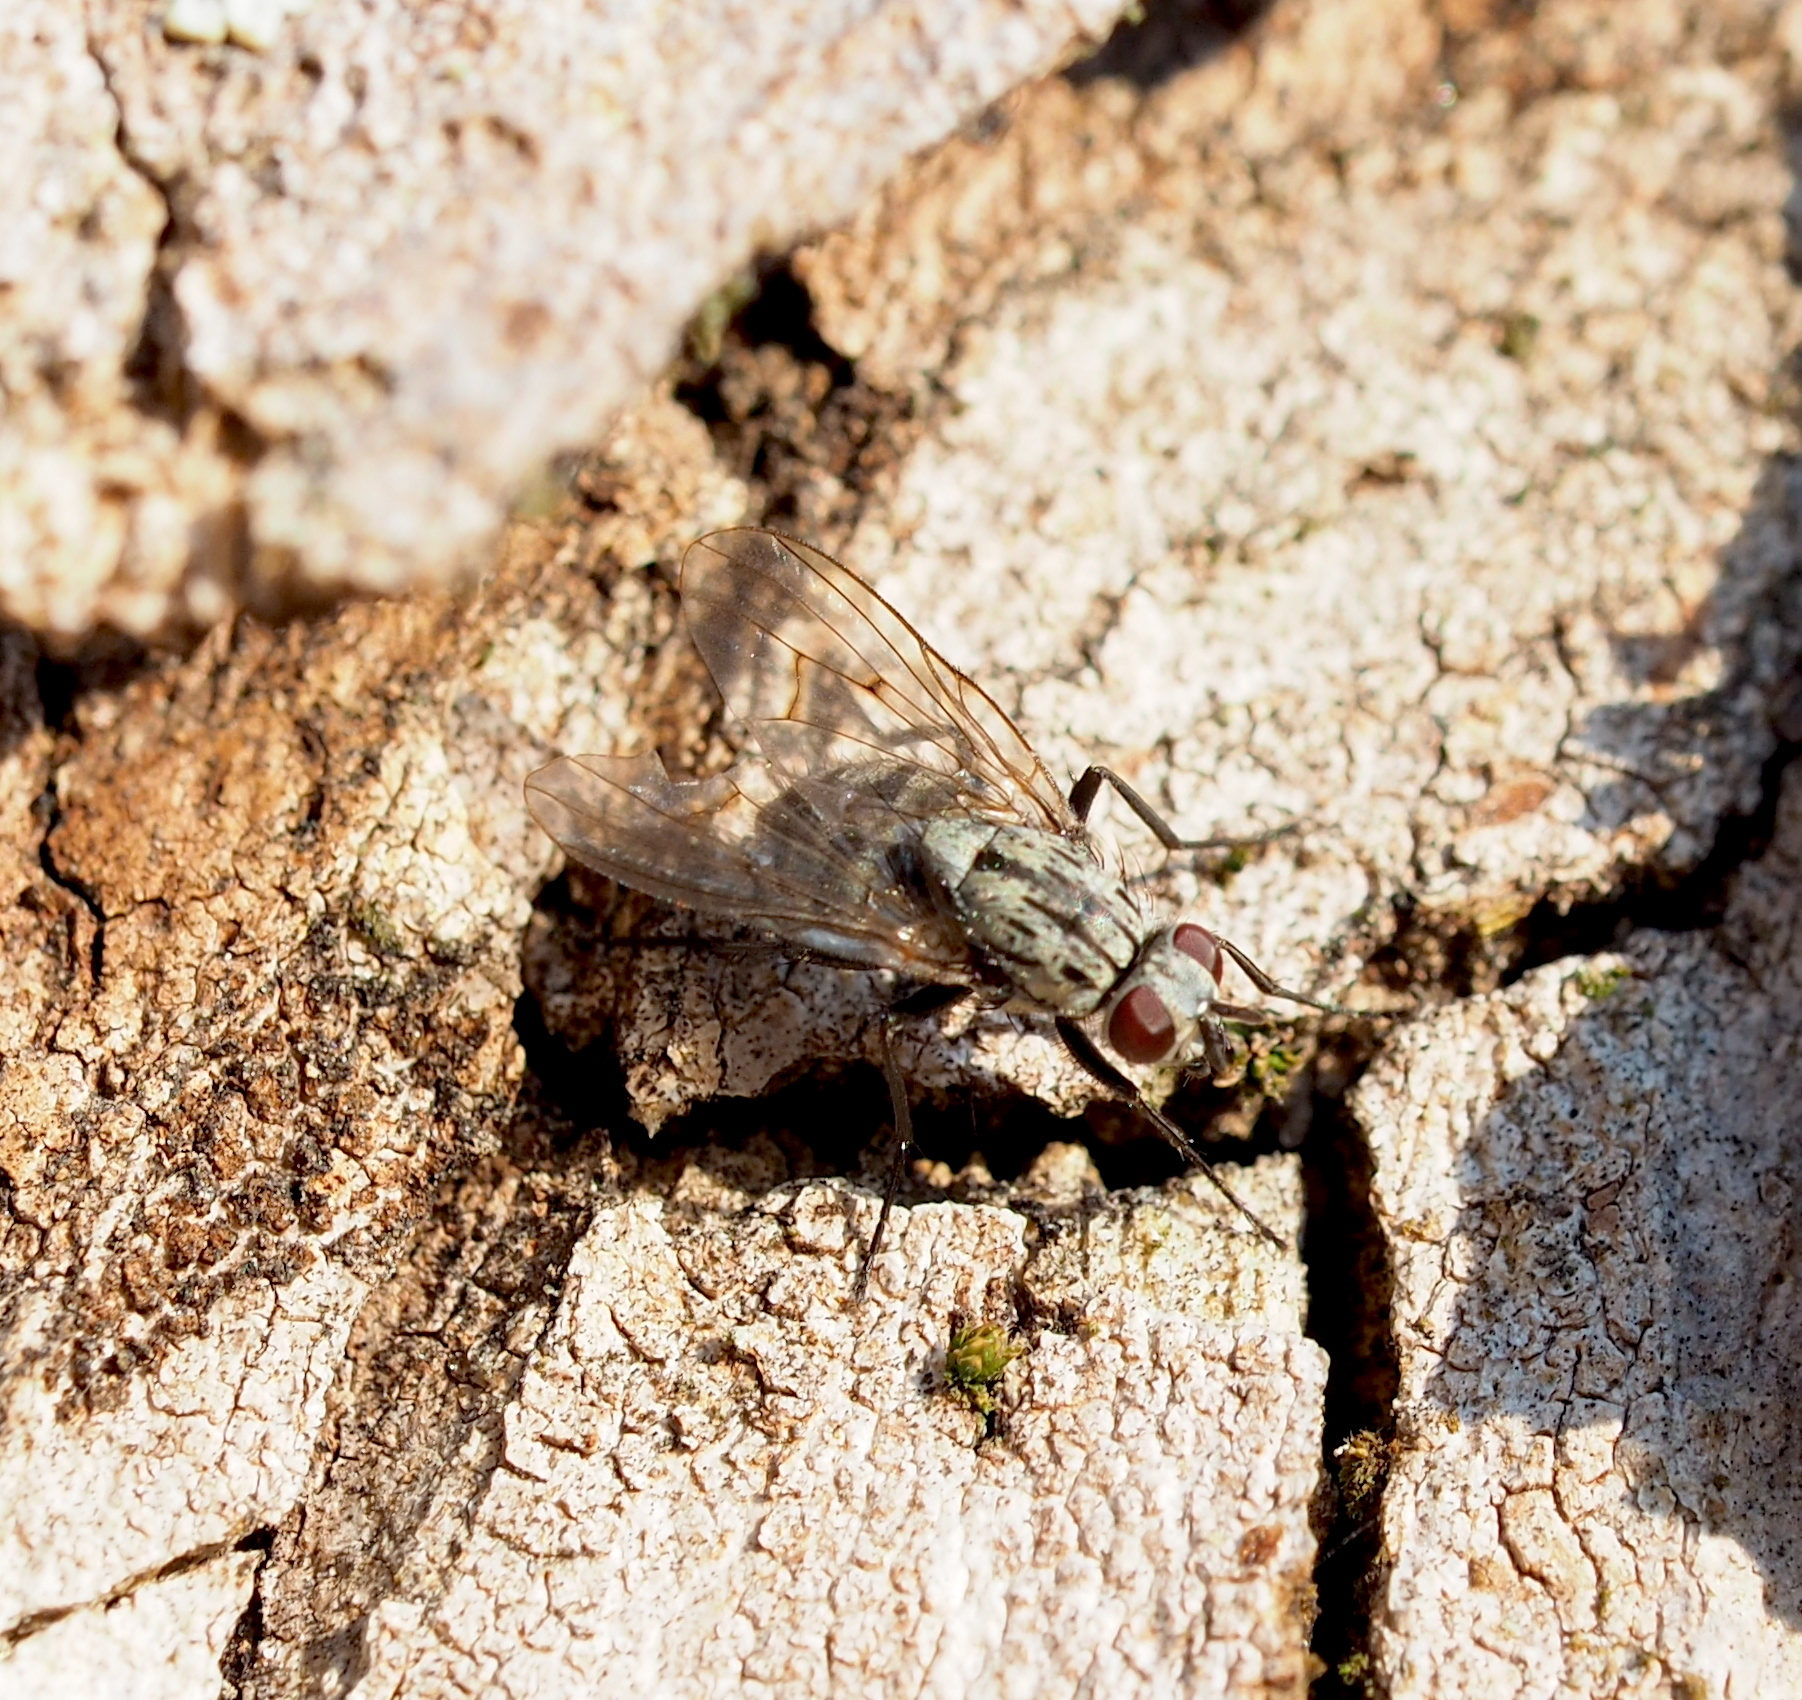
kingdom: Animalia
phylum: Arthropoda
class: Insecta
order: Diptera
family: Muscidae
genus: Phaonia
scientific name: Phaonia trimaculata
